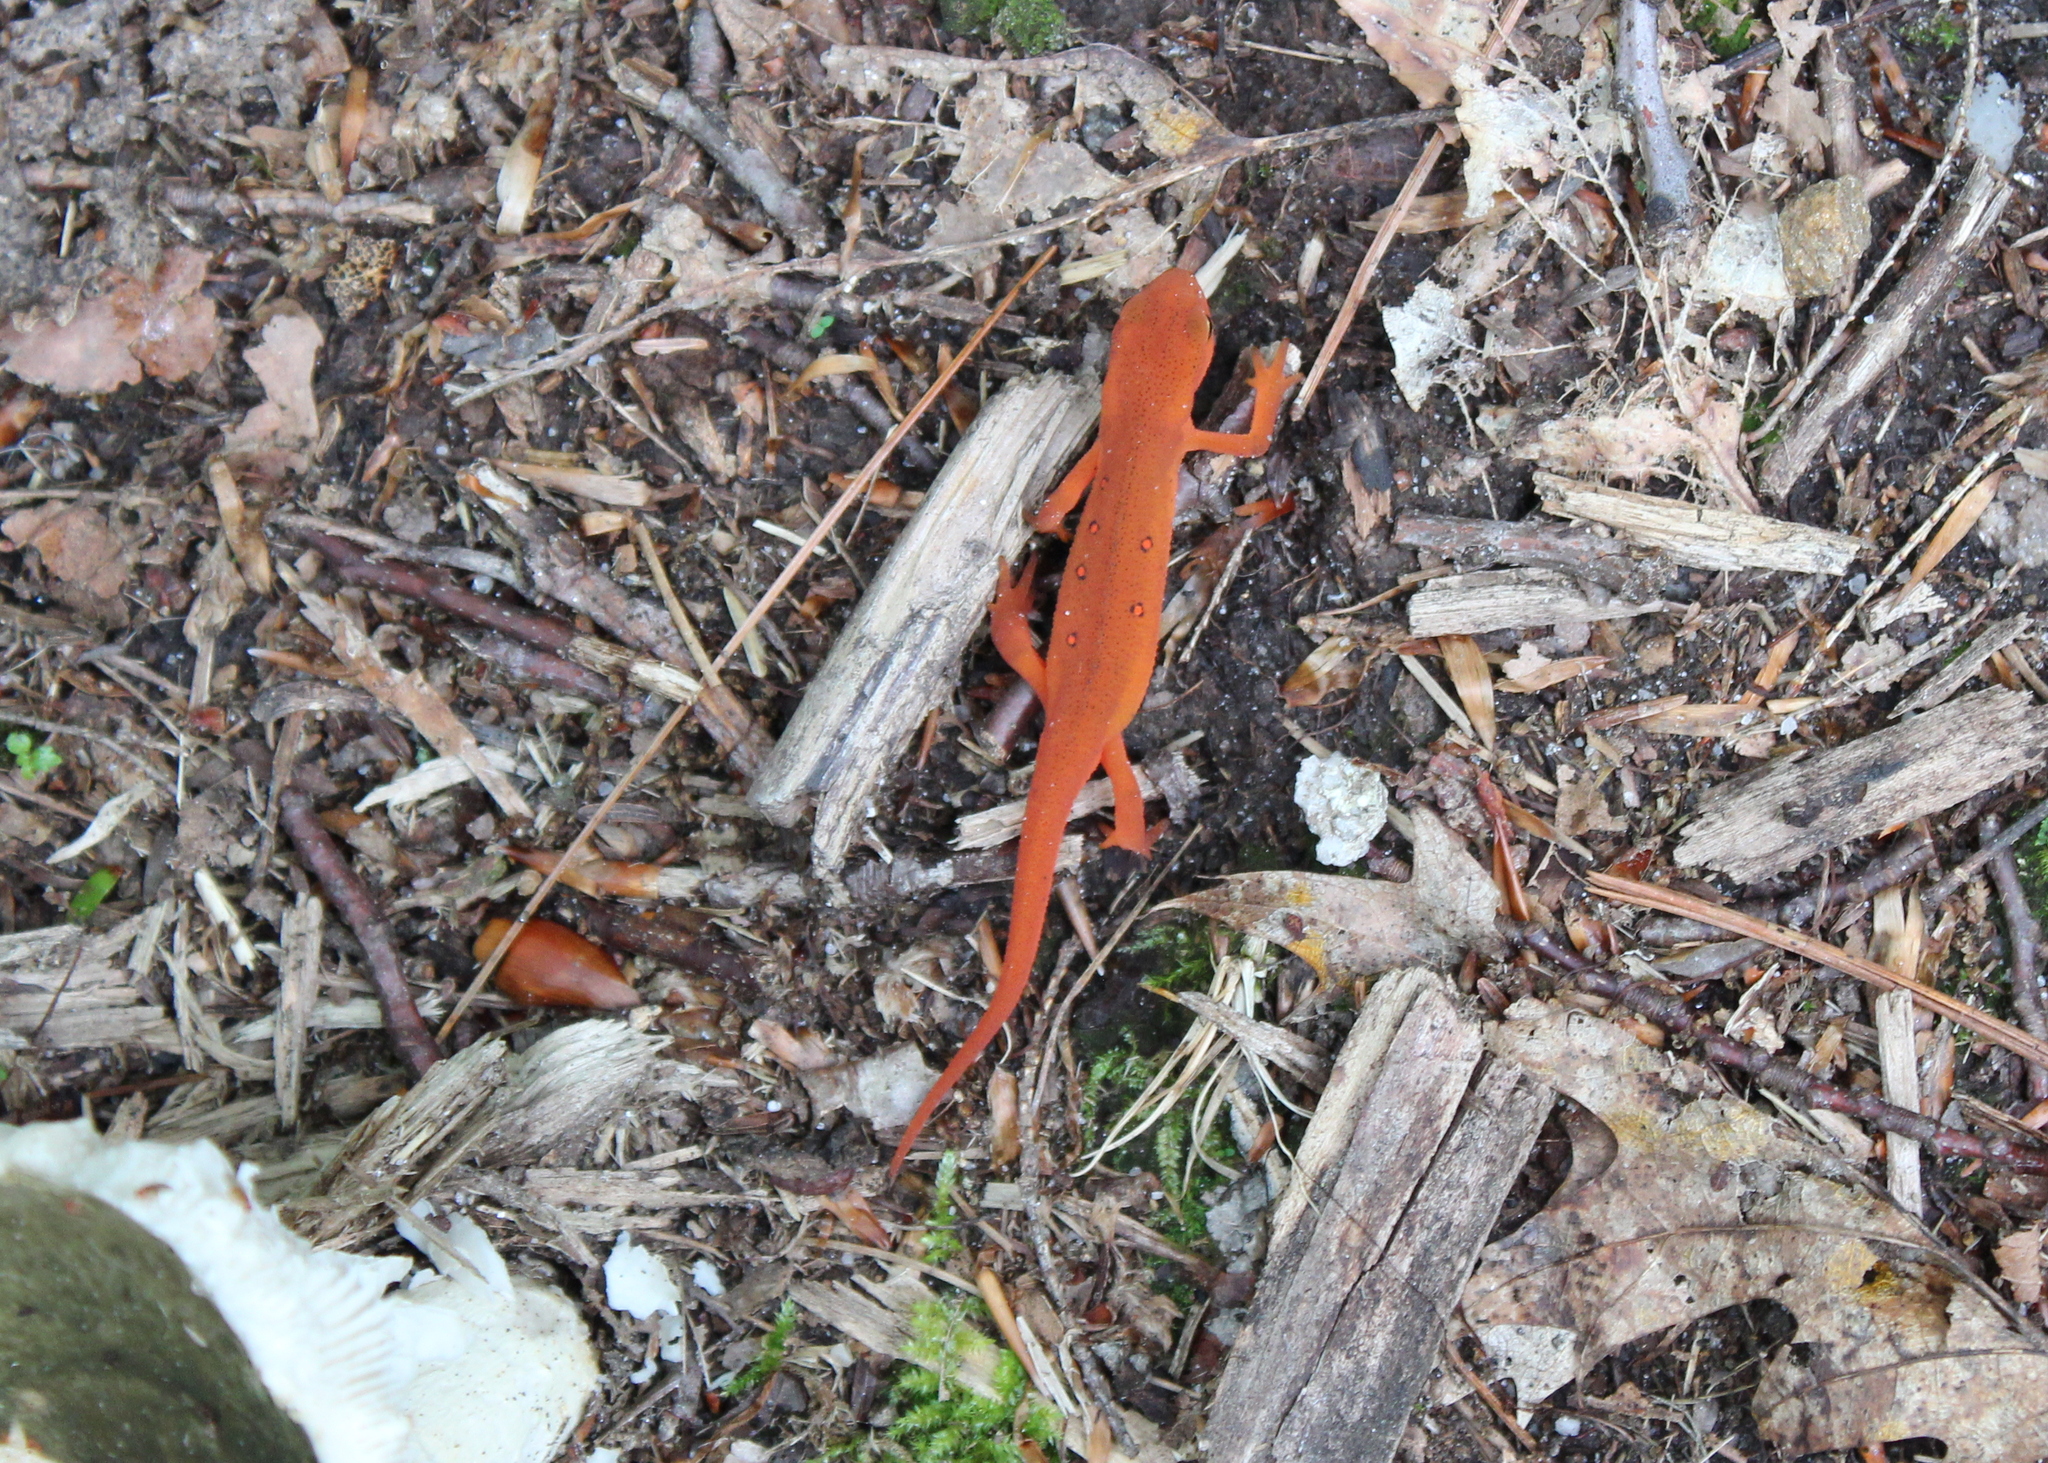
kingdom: Animalia
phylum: Chordata
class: Amphibia
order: Caudata
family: Salamandridae
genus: Notophthalmus
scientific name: Notophthalmus viridescens
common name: Eastern newt
